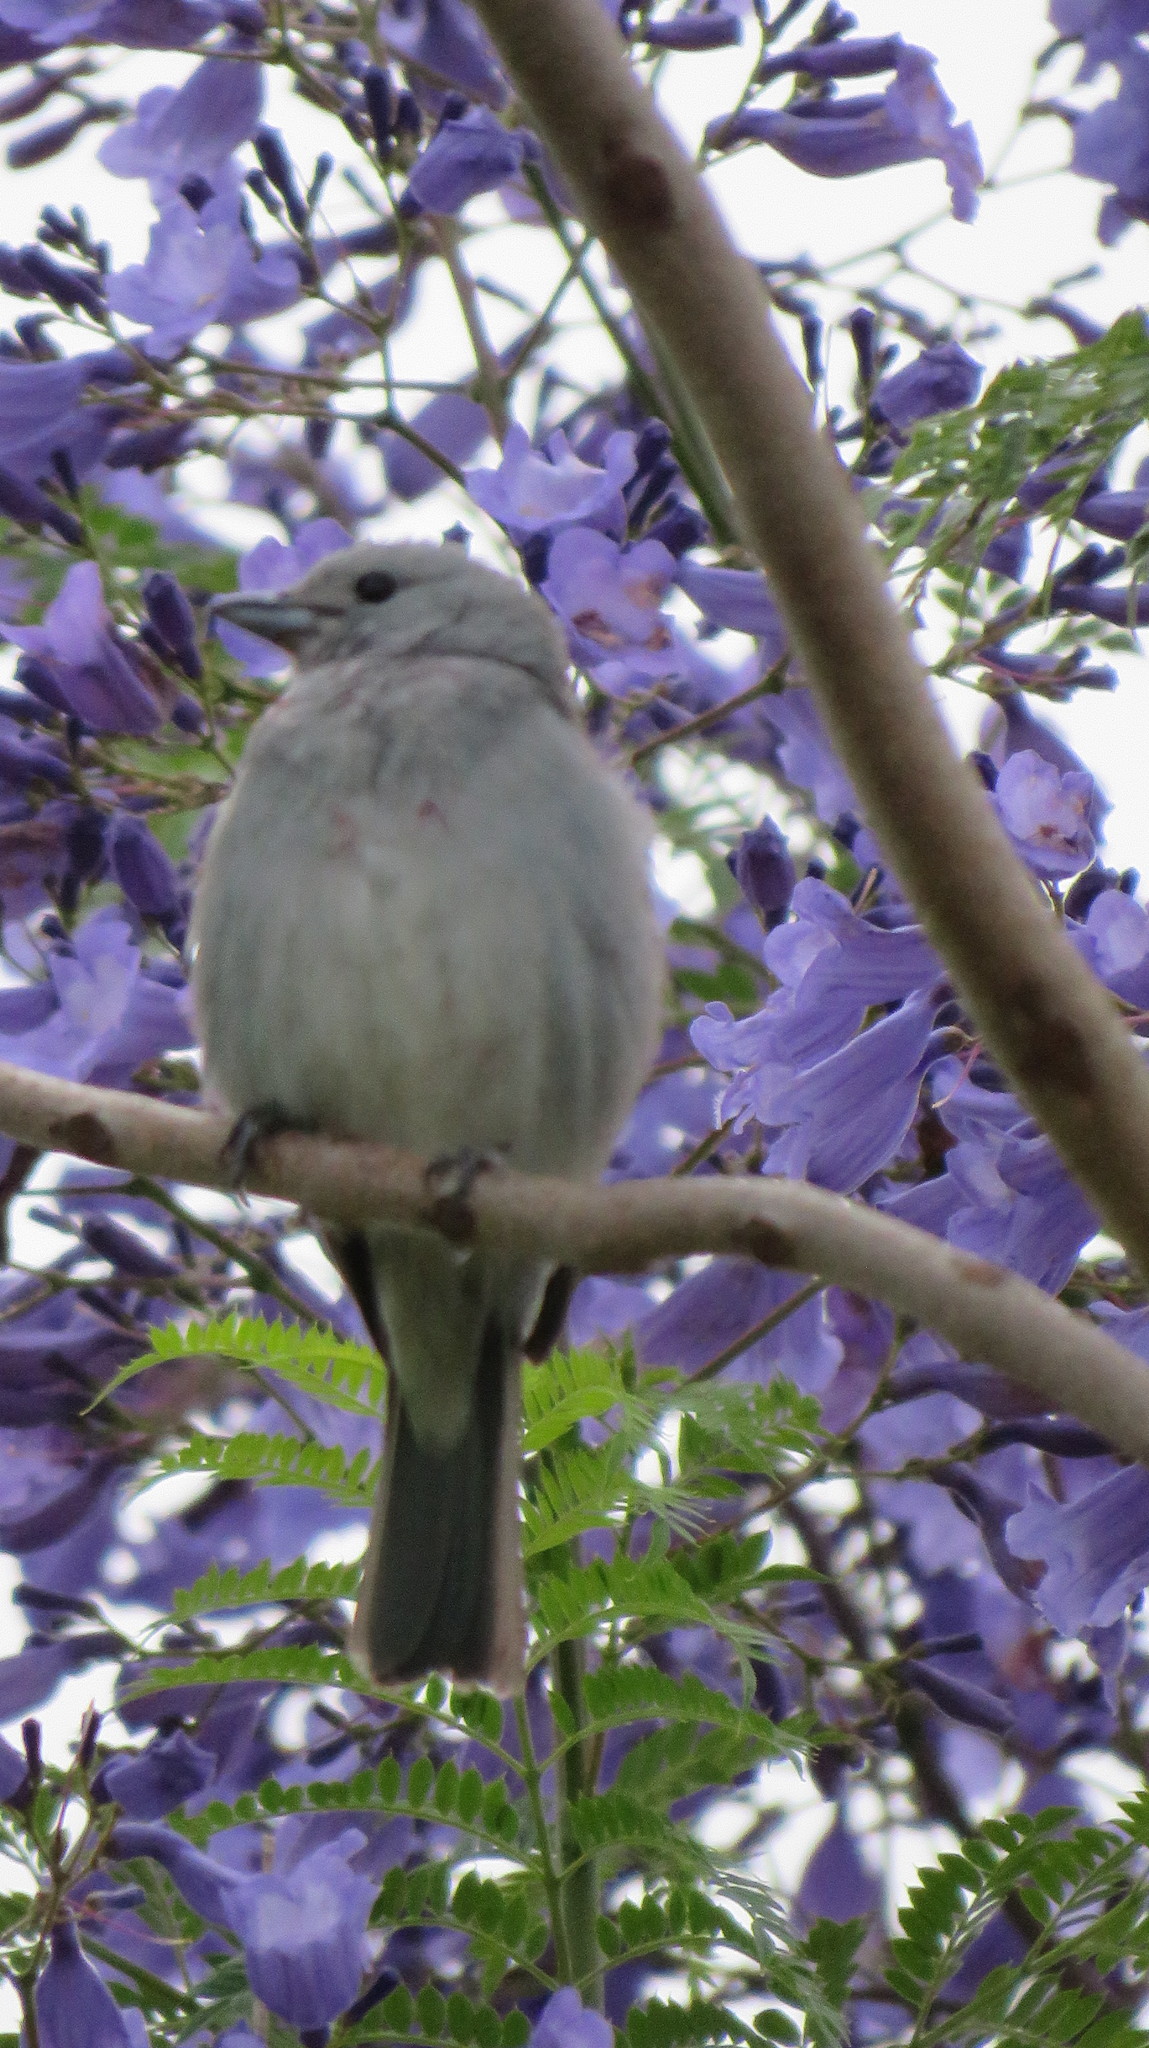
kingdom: Animalia
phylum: Chordata
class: Aves
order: Passeriformes
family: Thraupidae
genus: Thraupis
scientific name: Thraupis sayaca
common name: Sayaca tanager
